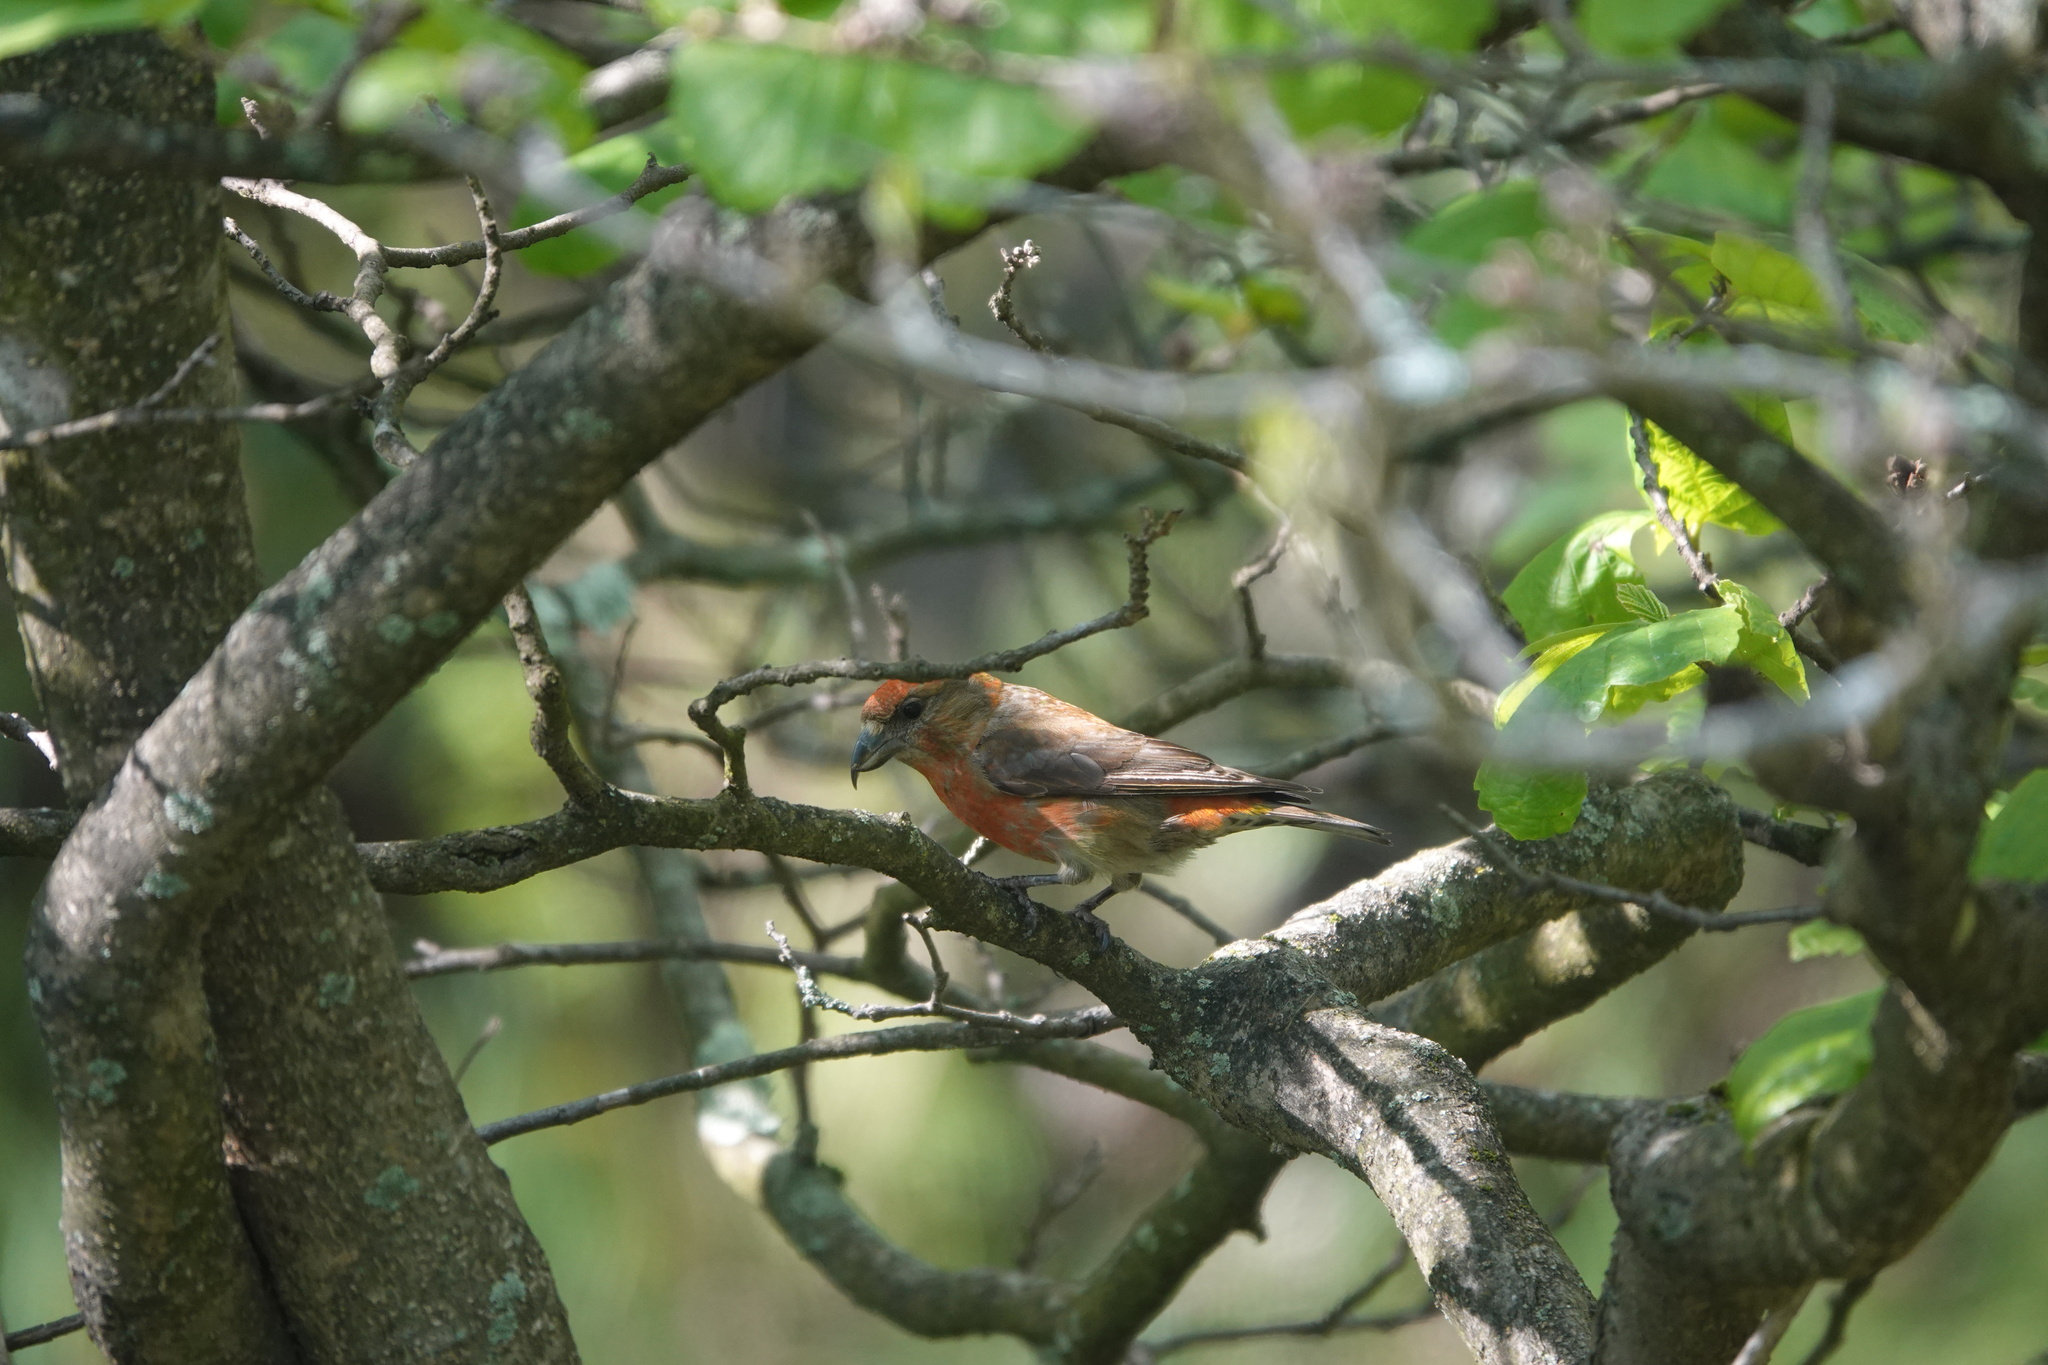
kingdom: Animalia
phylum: Chordata
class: Aves
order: Passeriformes
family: Fringillidae
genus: Loxia
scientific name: Loxia curvirostra
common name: Red crossbill
